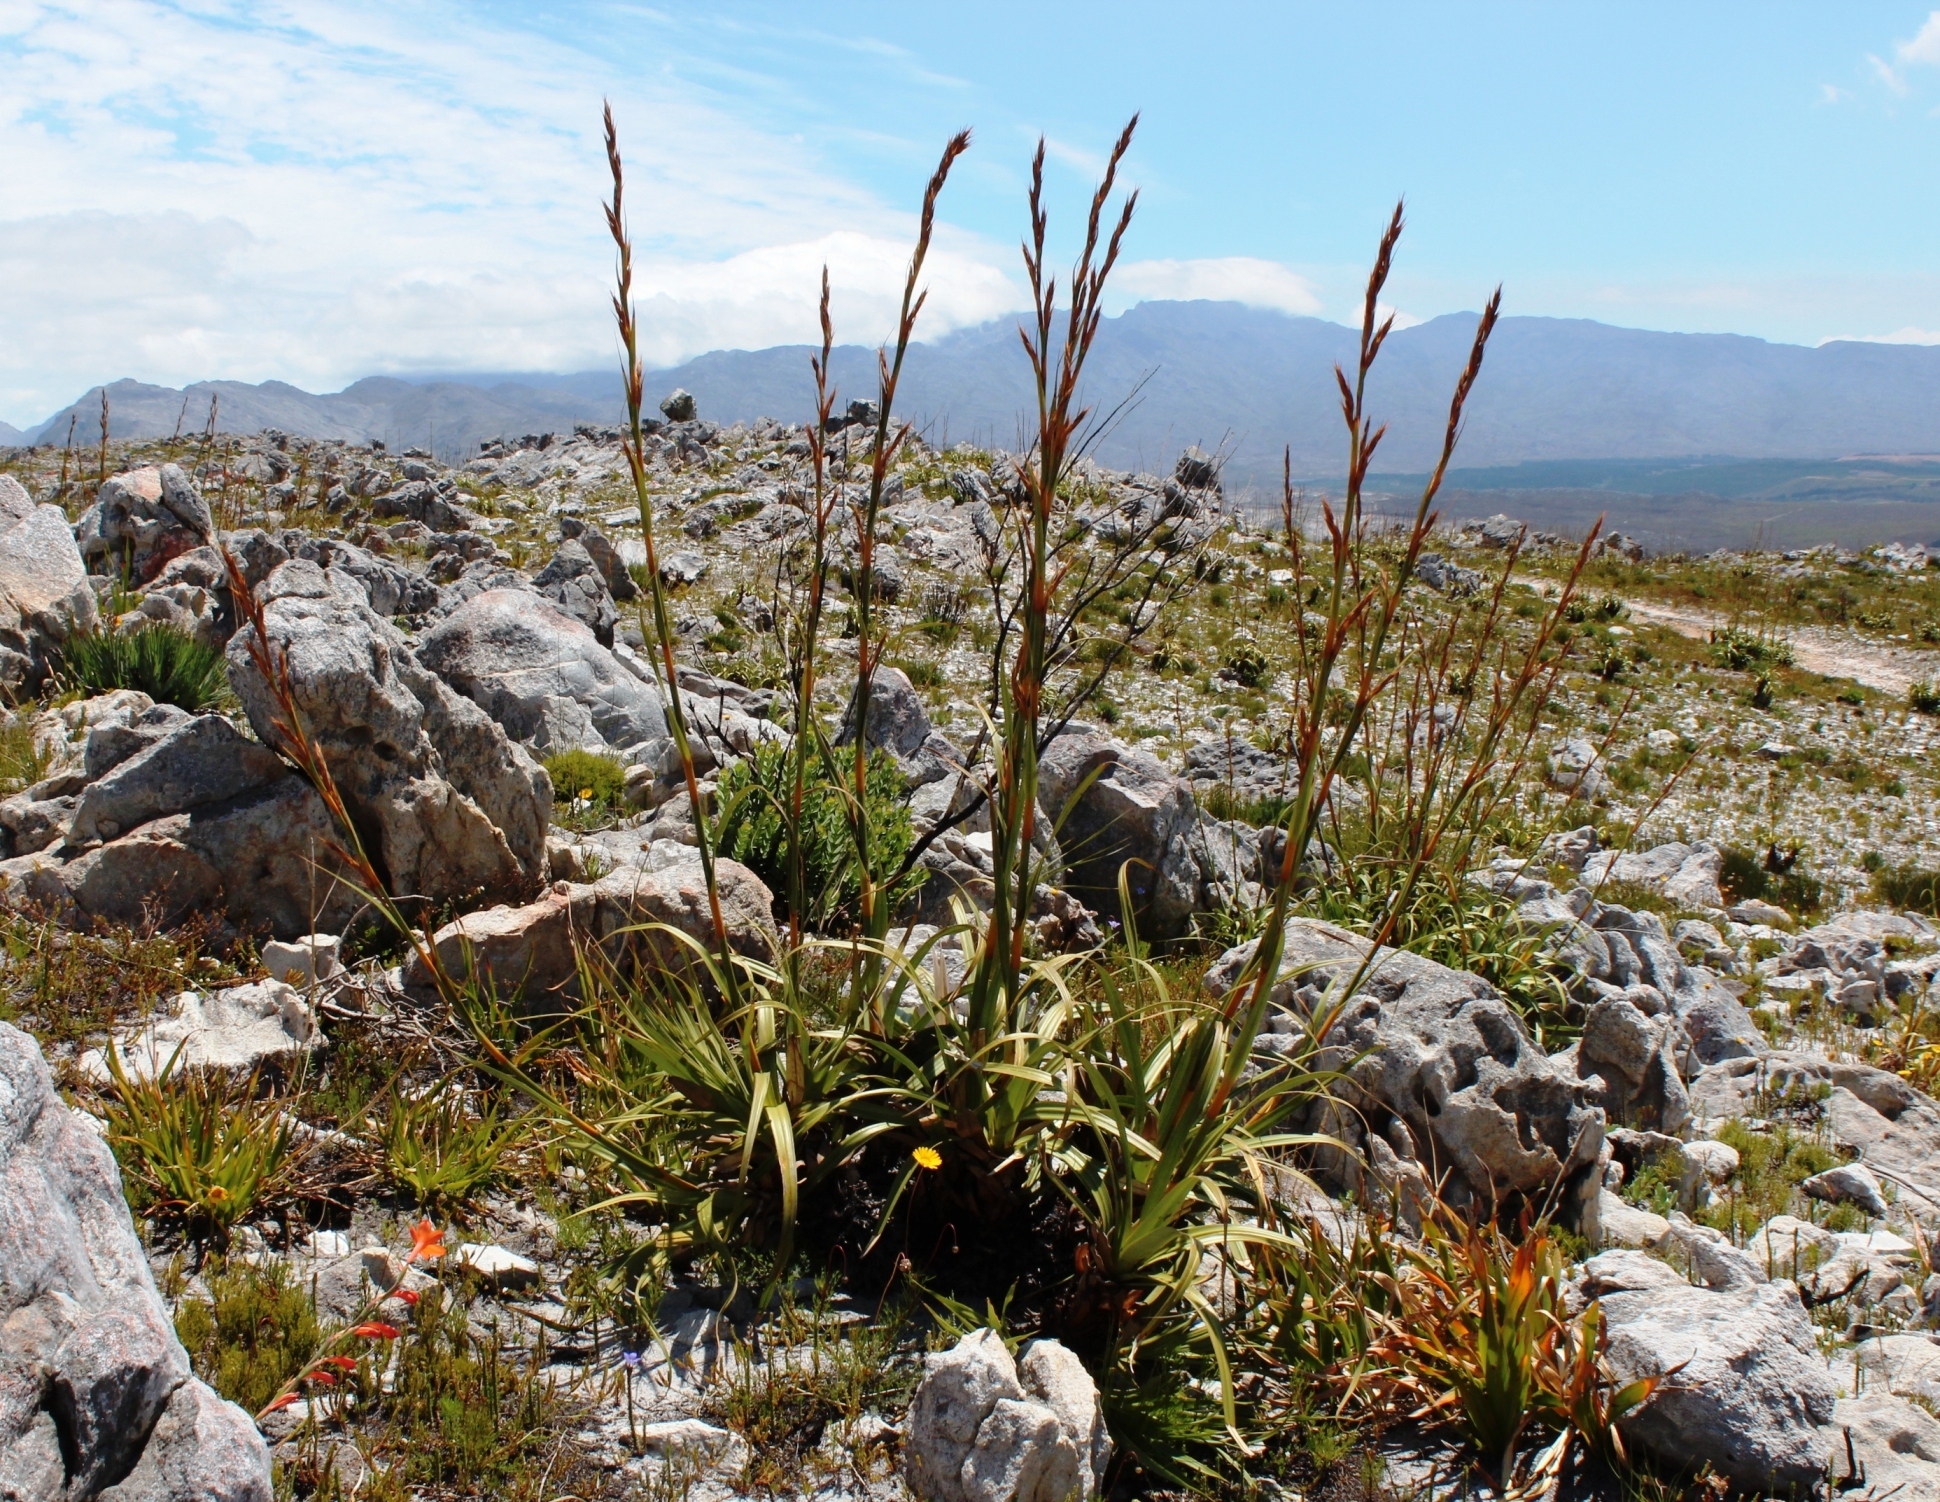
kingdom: Plantae
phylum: Tracheophyta
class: Liliopsida
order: Poales
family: Cyperaceae
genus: Tetraria
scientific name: Tetraria thermalis
